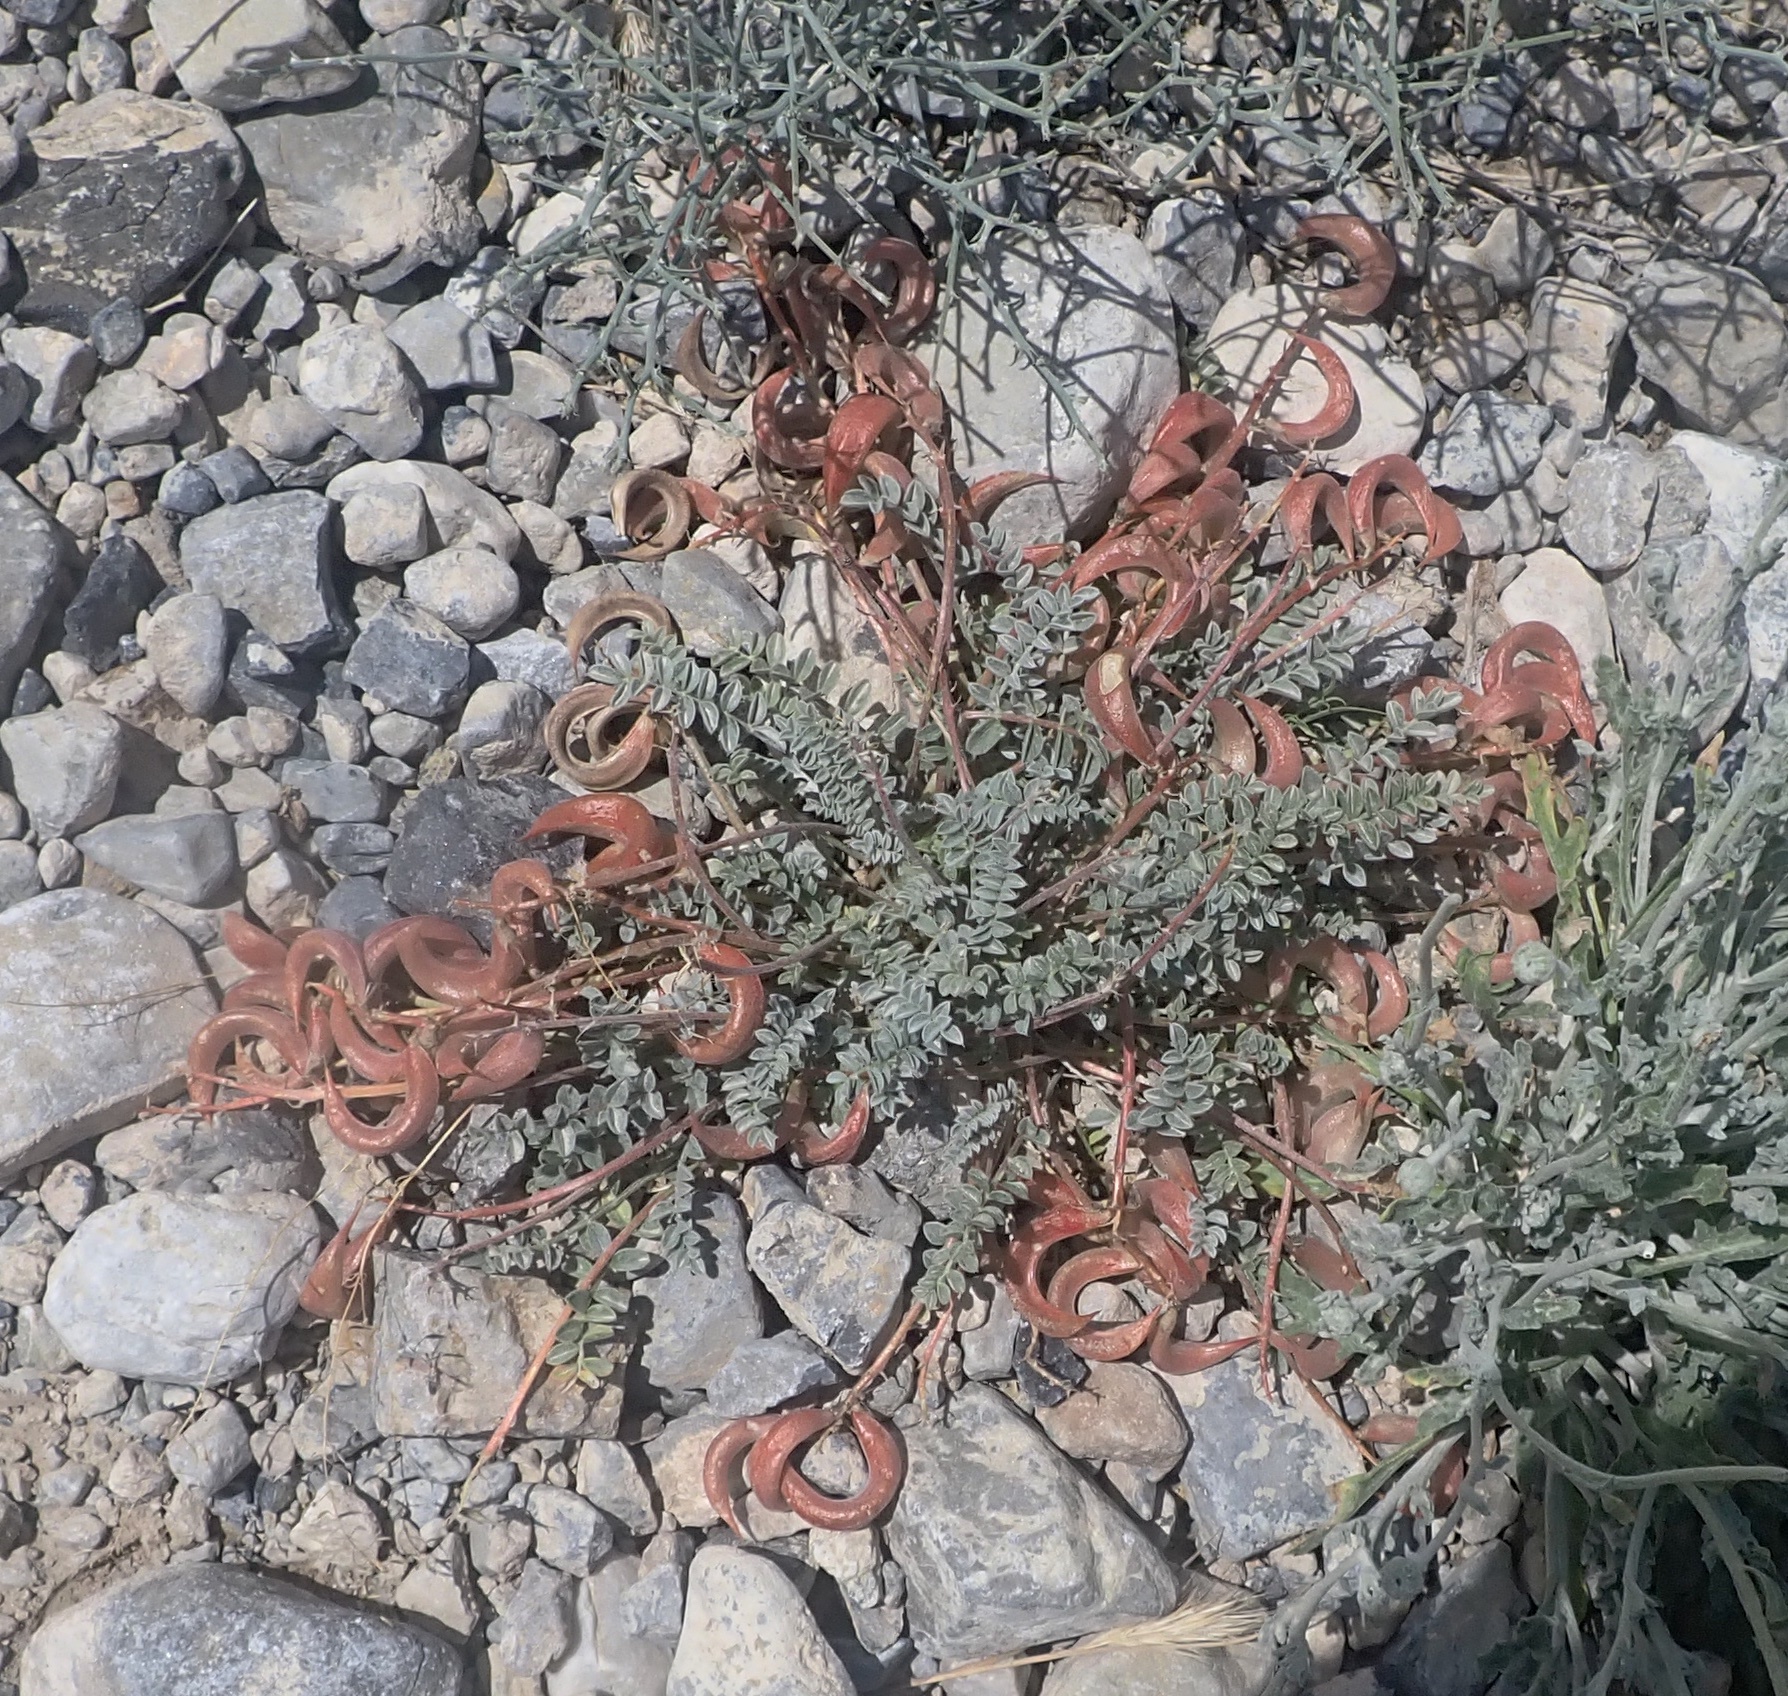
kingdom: Plantae
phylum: Tracheophyta
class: Magnoliopsida
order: Fabales
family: Fabaceae
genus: Astragalus
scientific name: Astragalus amphioxys
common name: Crescent milk-vetch
